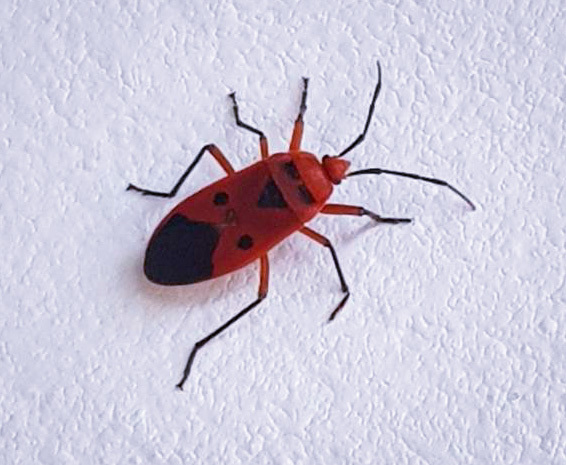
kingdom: Animalia
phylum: Arthropoda
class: Insecta
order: Hemiptera
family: Largidae
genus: Physopelta
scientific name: Physopelta slanbuschii
